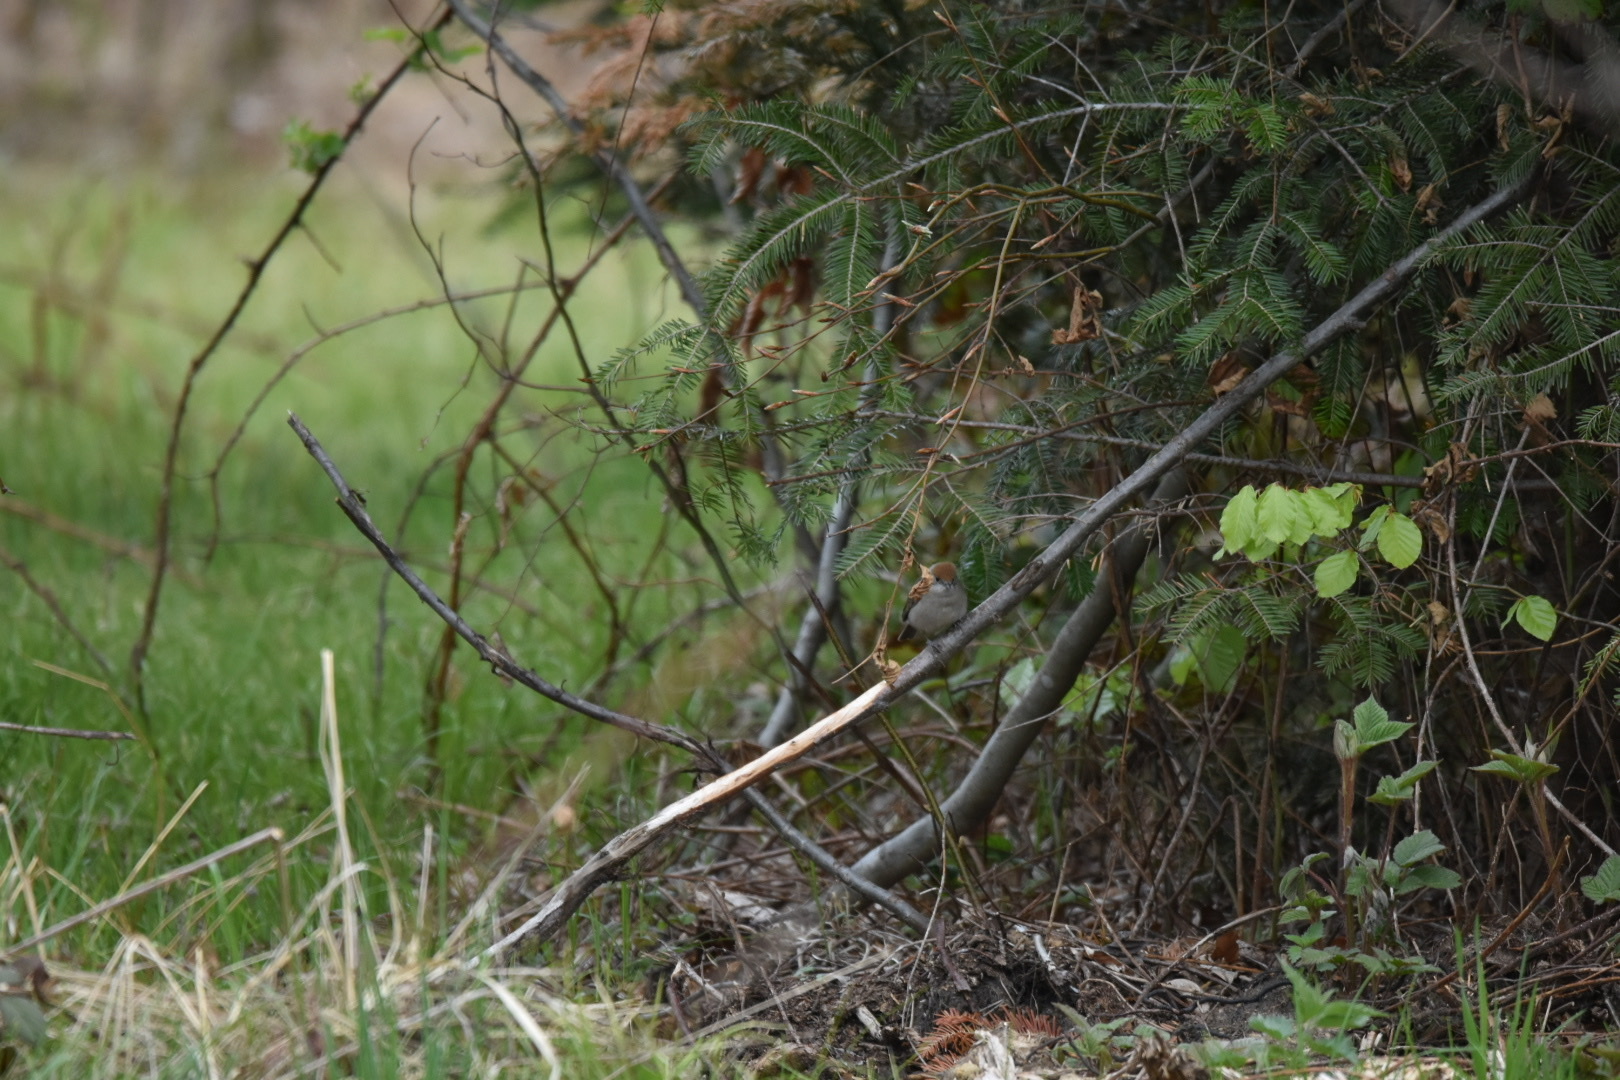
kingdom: Animalia
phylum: Chordata
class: Aves
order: Passeriformes
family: Sylviidae
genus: Sylvia
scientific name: Sylvia atricapilla
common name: Eurasian blackcap
